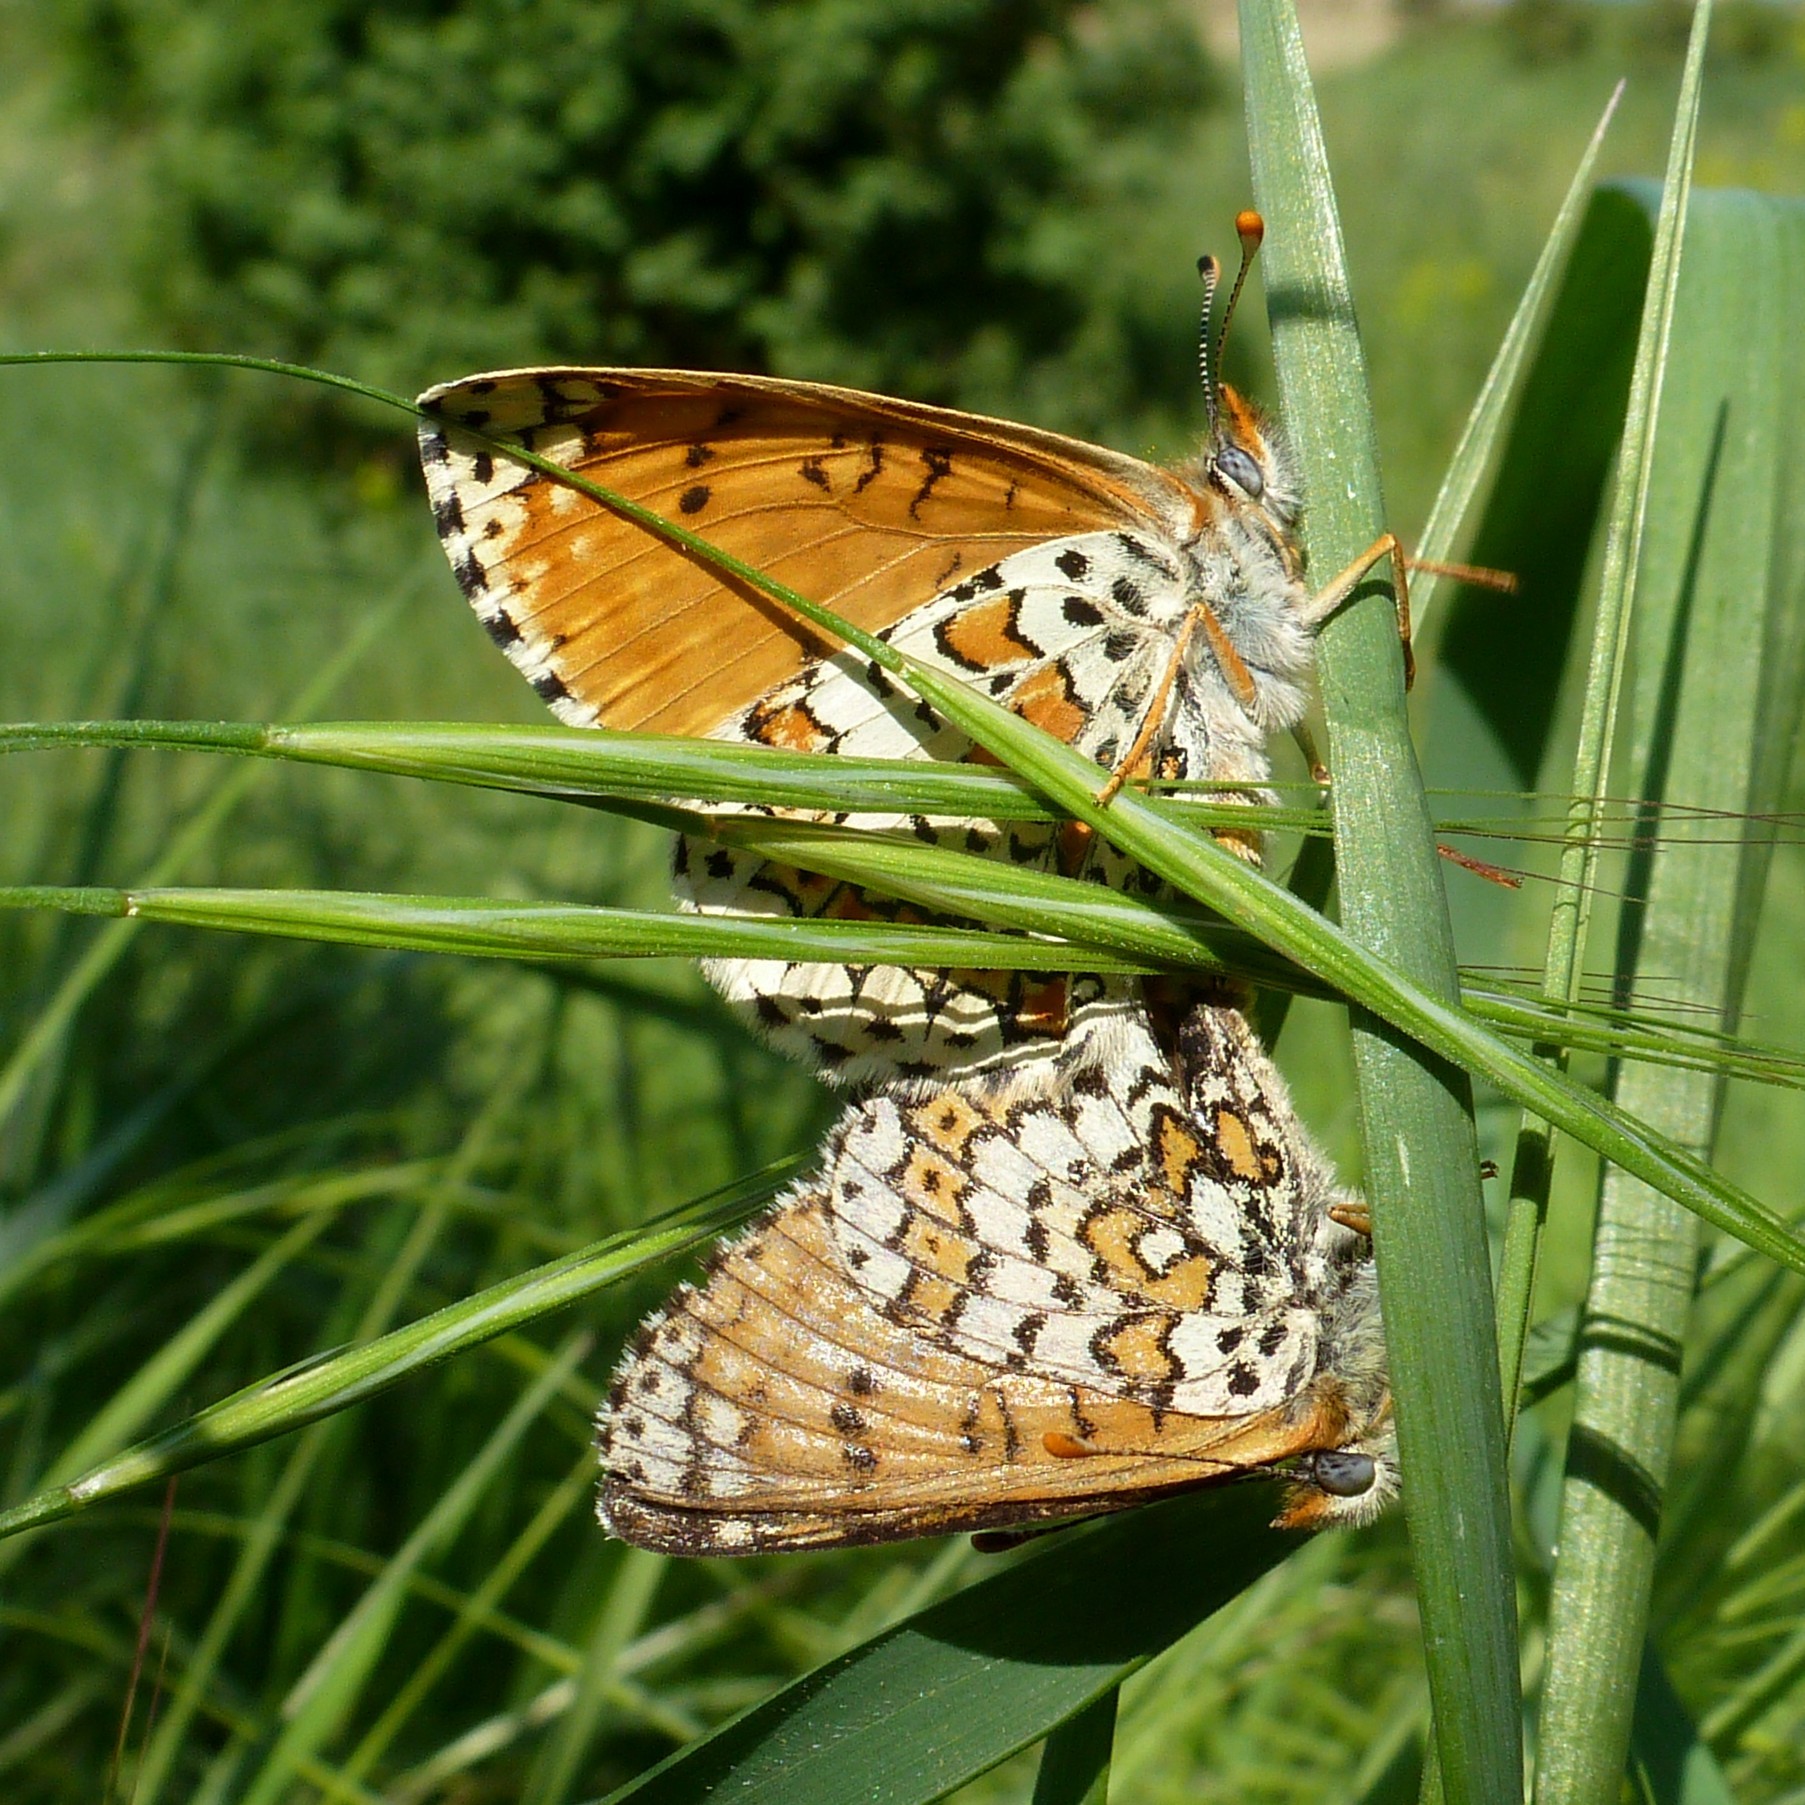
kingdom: Animalia
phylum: Arthropoda
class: Insecta
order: Lepidoptera
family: Nymphalidae
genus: Melitaea
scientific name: Melitaea cinxia
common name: Glanville fritillary
